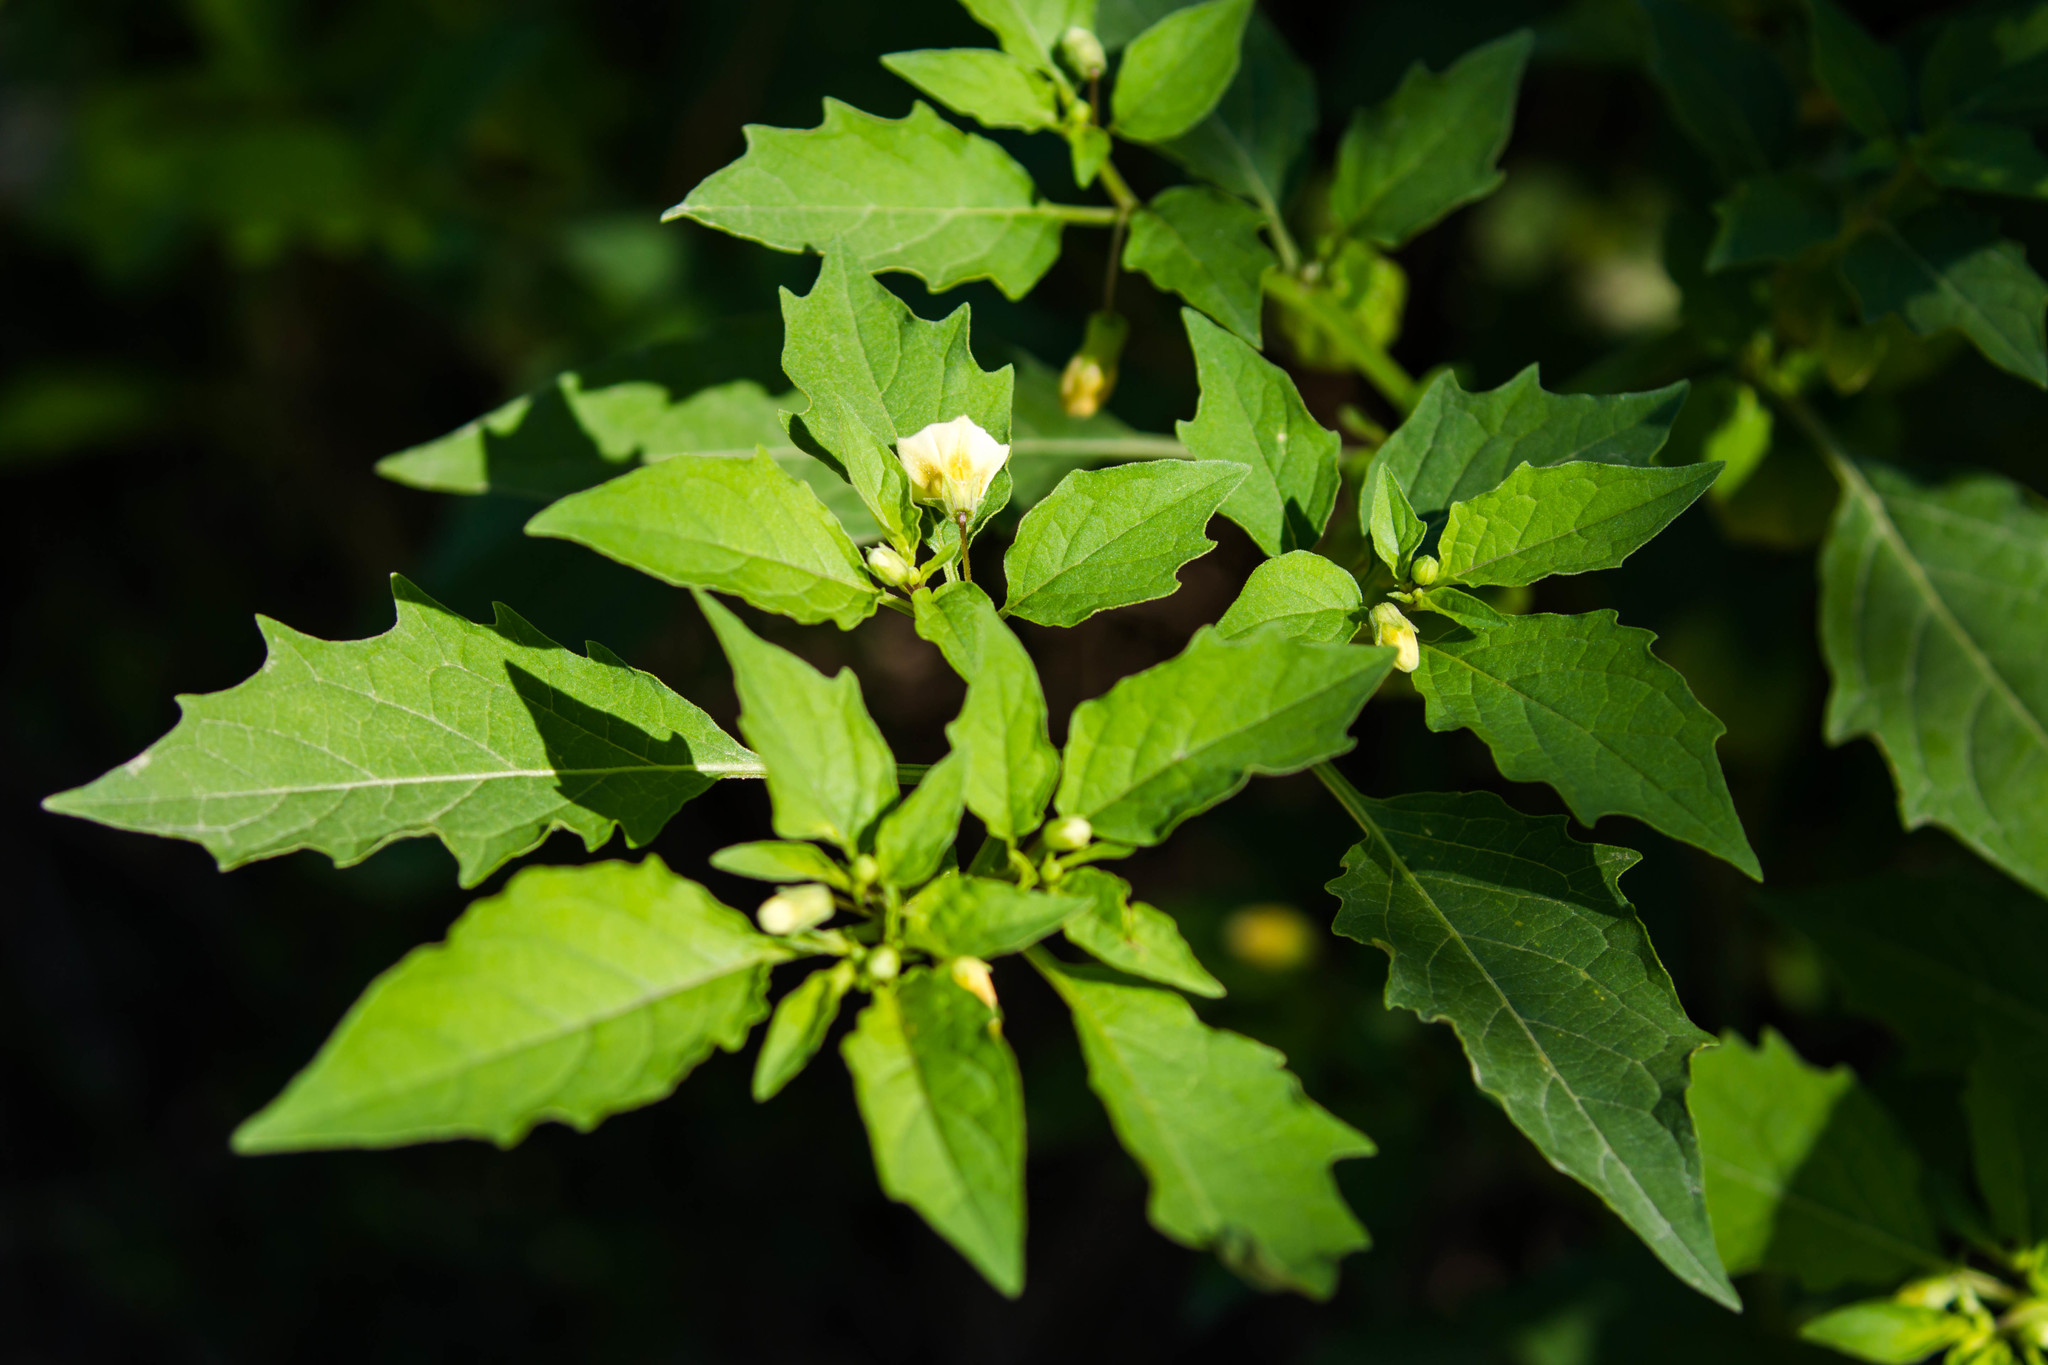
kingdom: Plantae
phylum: Tracheophyta
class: Magnoliopsida
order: Solanales
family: Solanaceae
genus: Physalis
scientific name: Physalis angulata
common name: Angular winter-cherry
